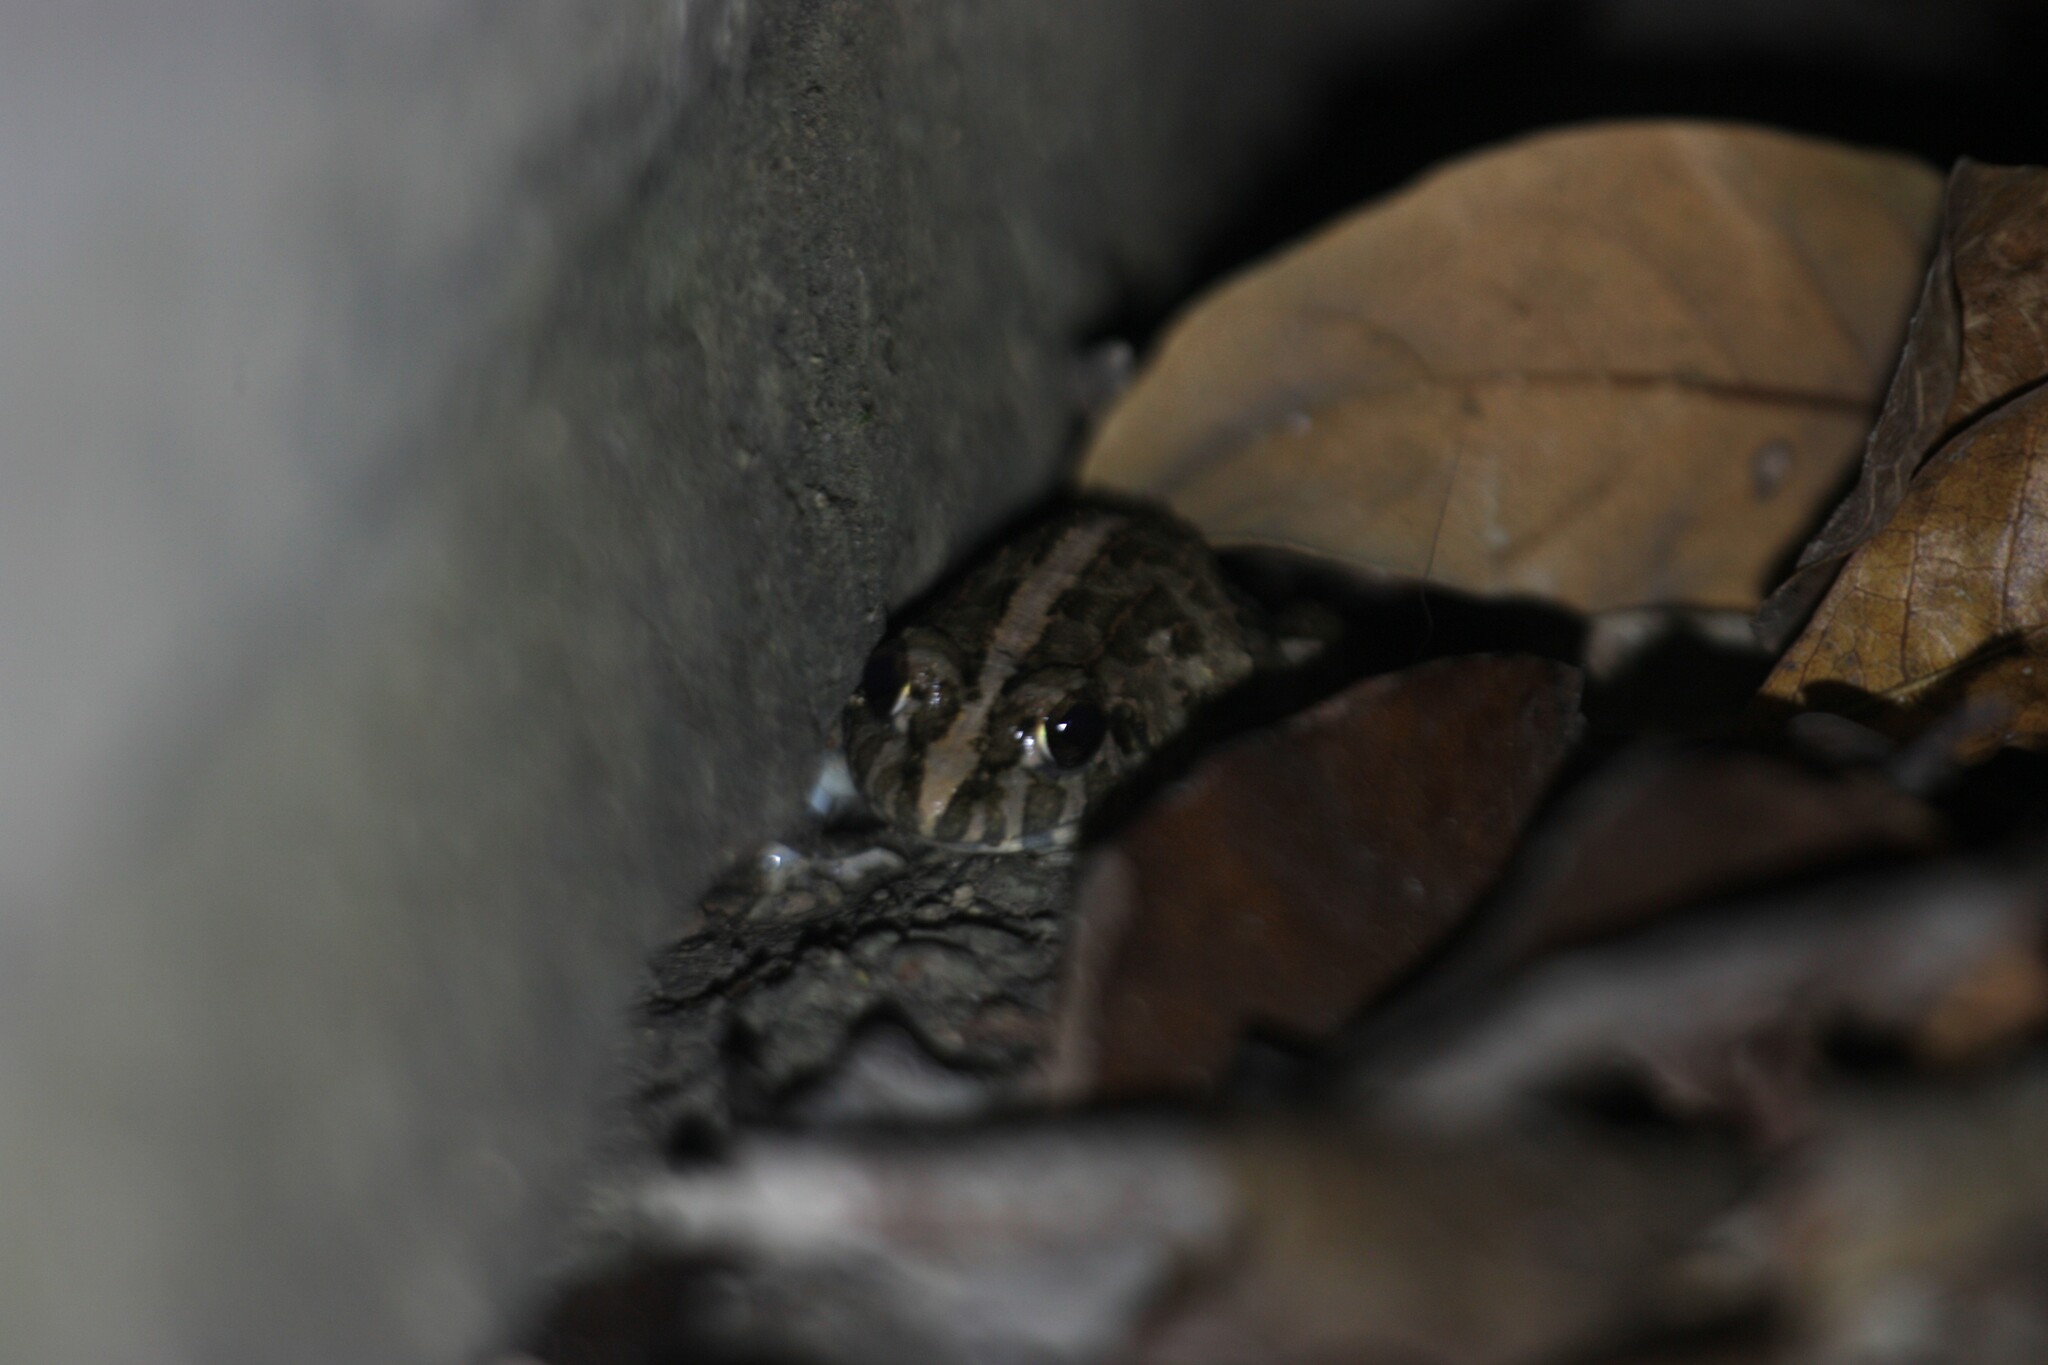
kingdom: Animalia
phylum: Chordata
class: Amphibia
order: Anura
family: Dicroglossidae
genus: Fejervarya
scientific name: Fejervarya limnocharis
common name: Asian grass frog/common pond frog/field frog/grass frog/indian rice frog
